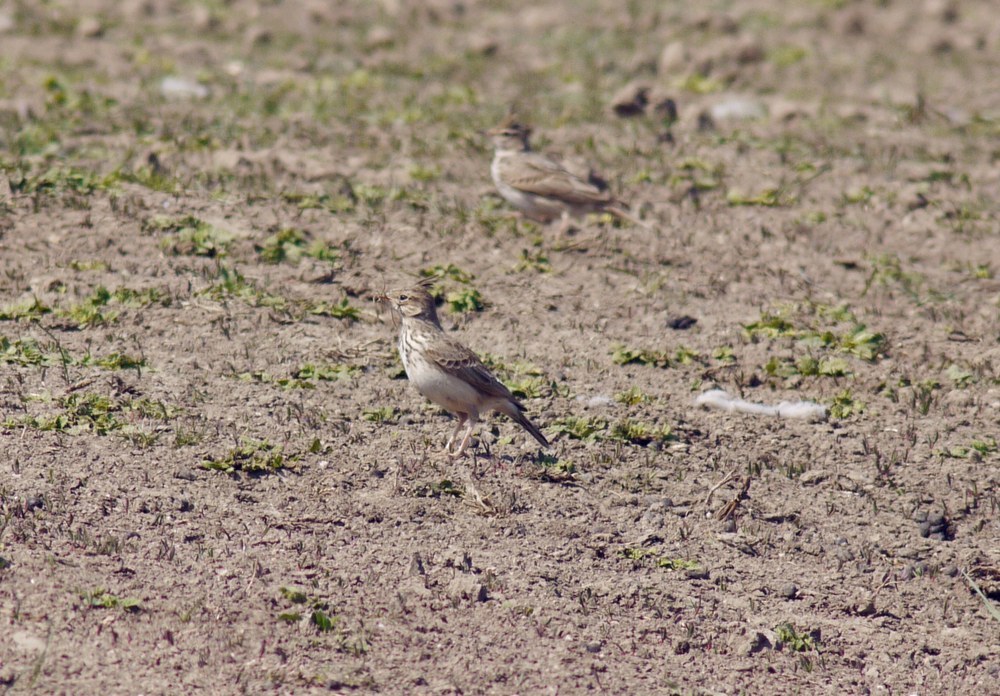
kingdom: Animalia
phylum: Chordata
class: Aves
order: Passeriformes
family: Alaudidae
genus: Galerida
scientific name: Galerida cristata
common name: Crested lark
